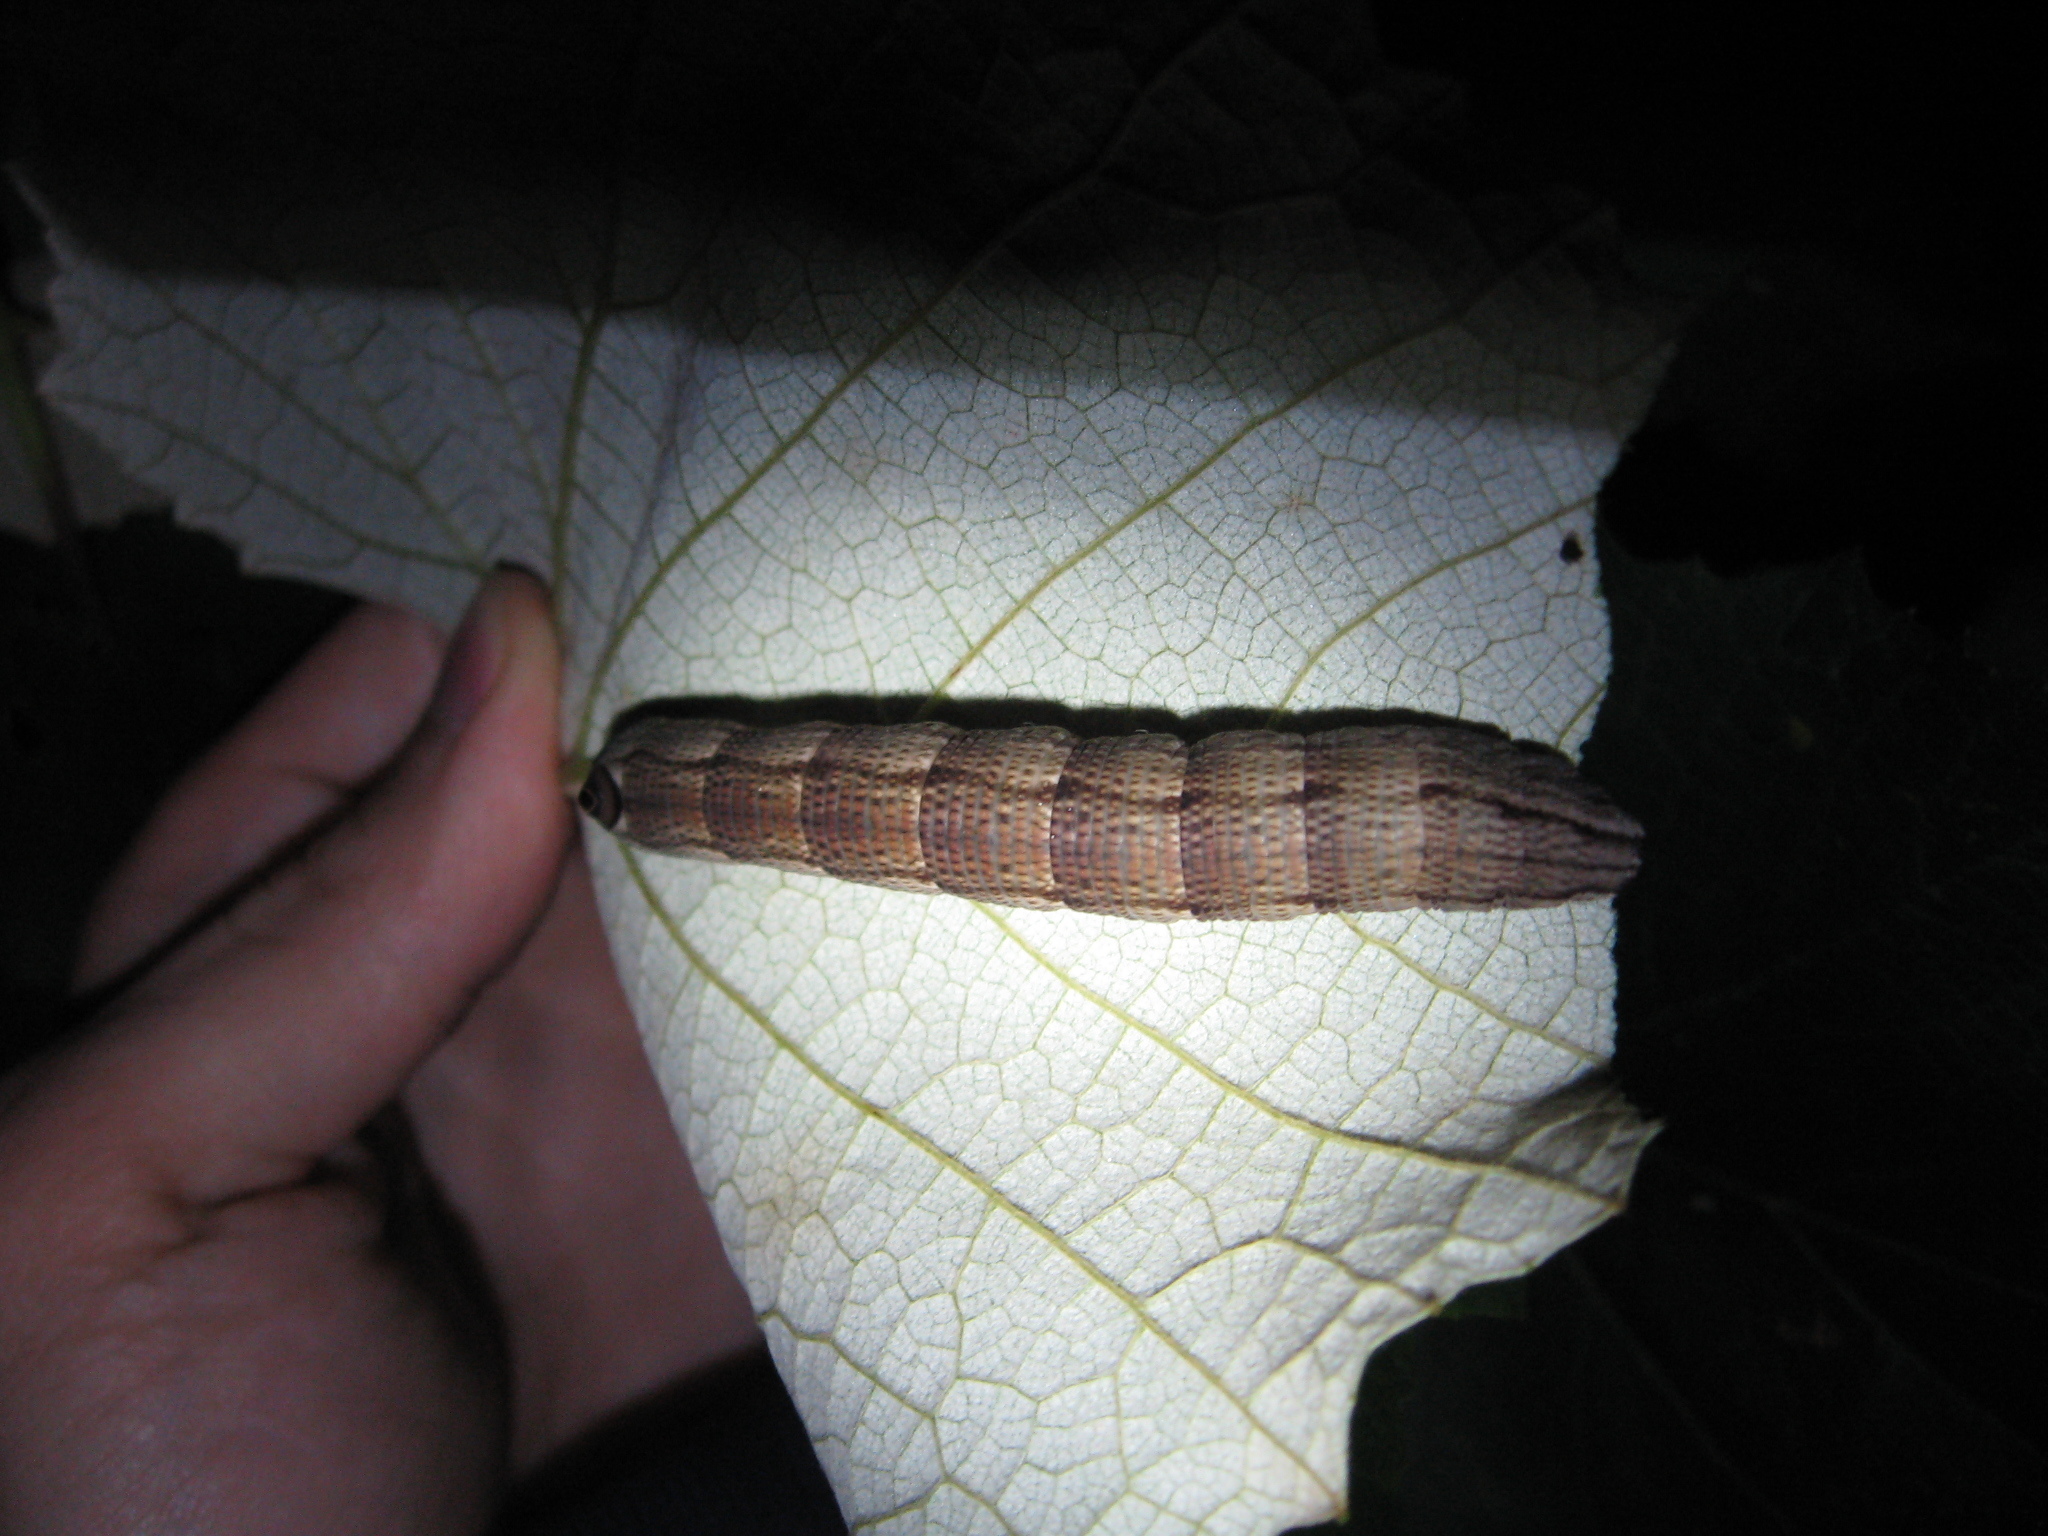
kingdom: Animalia
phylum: Arthropoda
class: Insecta
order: Lepidoptera
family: Sphingidae
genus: Sphecodina
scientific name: Sphecodina abbottii
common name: Abbott's sphinx
